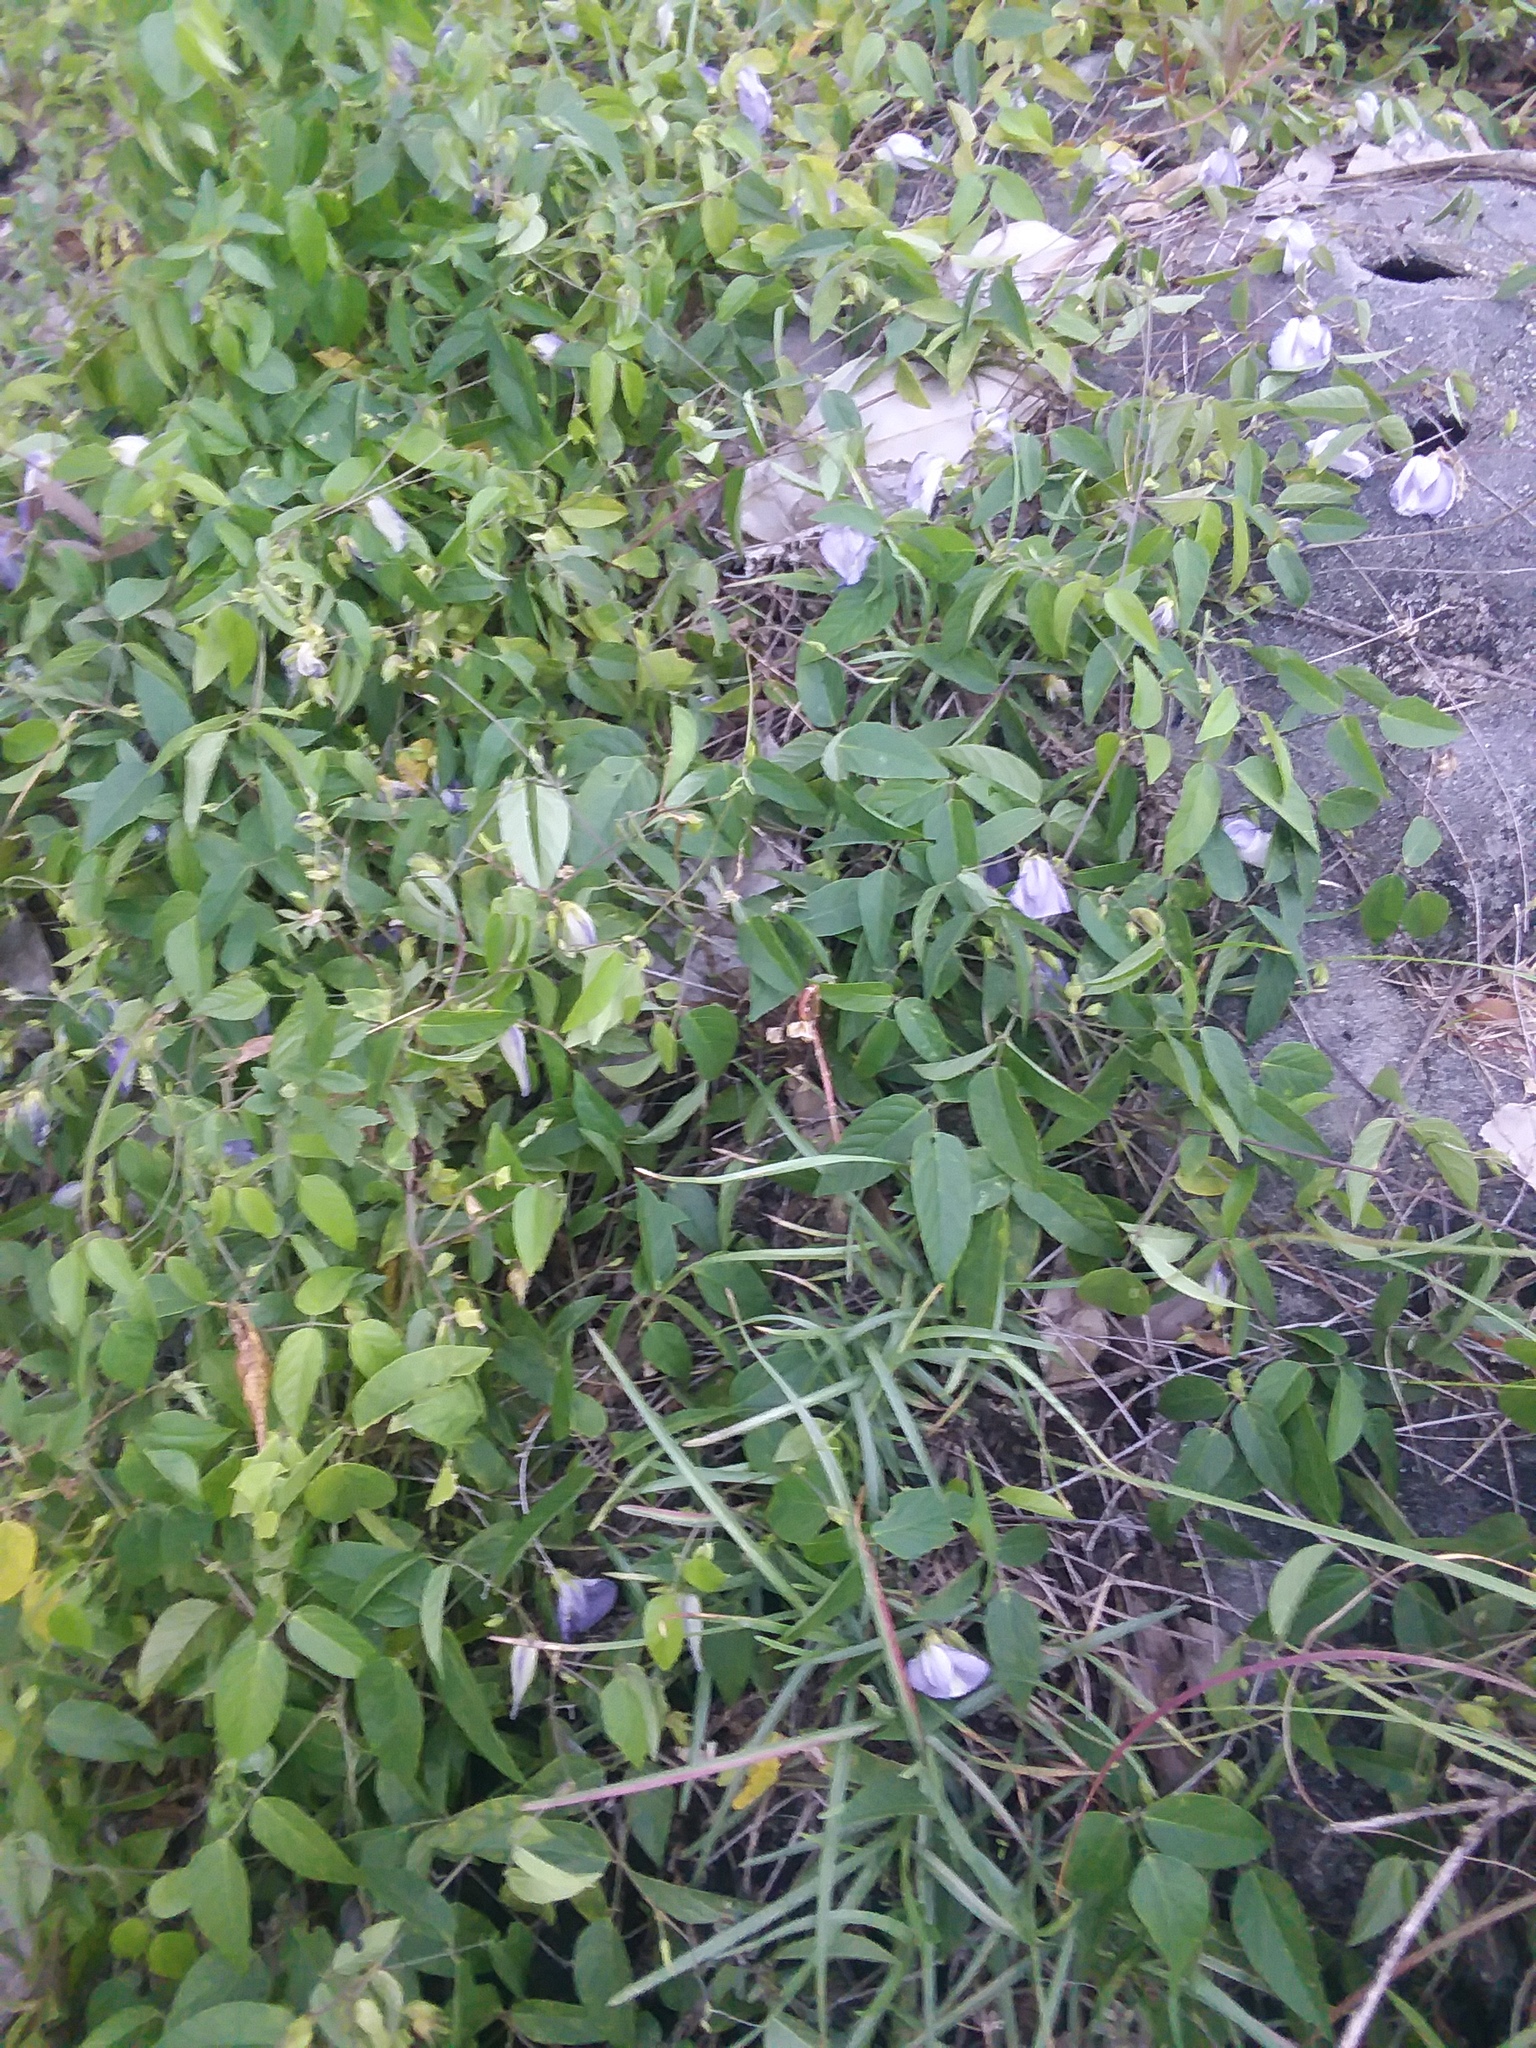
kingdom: Plantae
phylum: Tracheophyta
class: Magnoliopsida
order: Fabales
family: Fabaceae
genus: Centrosema
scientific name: Centrosema virginianum
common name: Butterfly-pea
